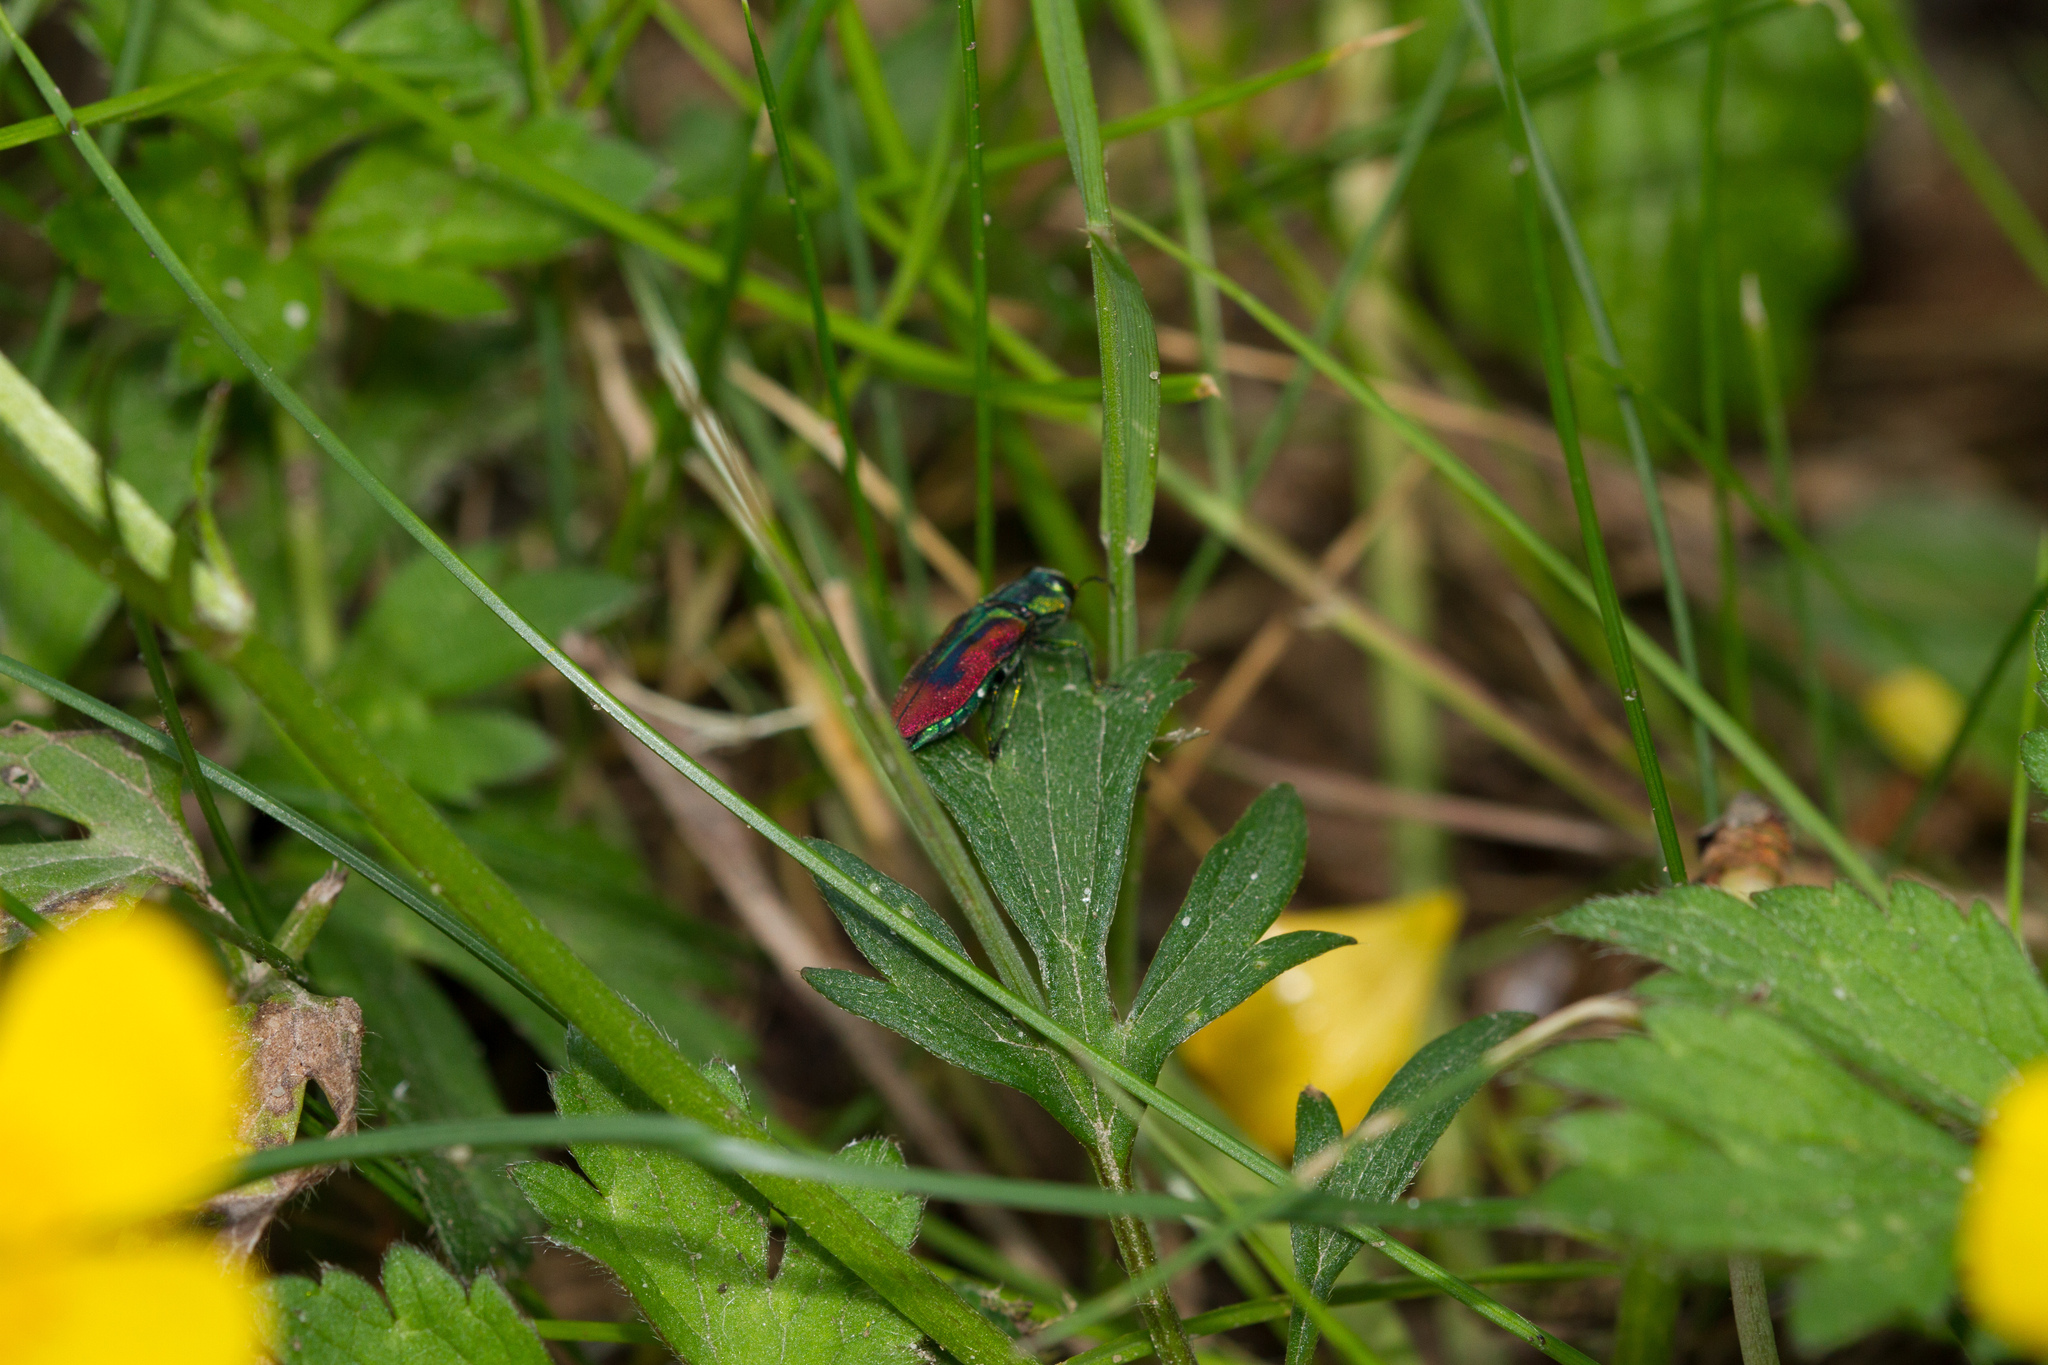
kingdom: Animalia
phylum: Arthropoda
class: Insecta
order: Coleoptera
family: Buprestidae
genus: Anthaxia
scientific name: Anthaxia candens
